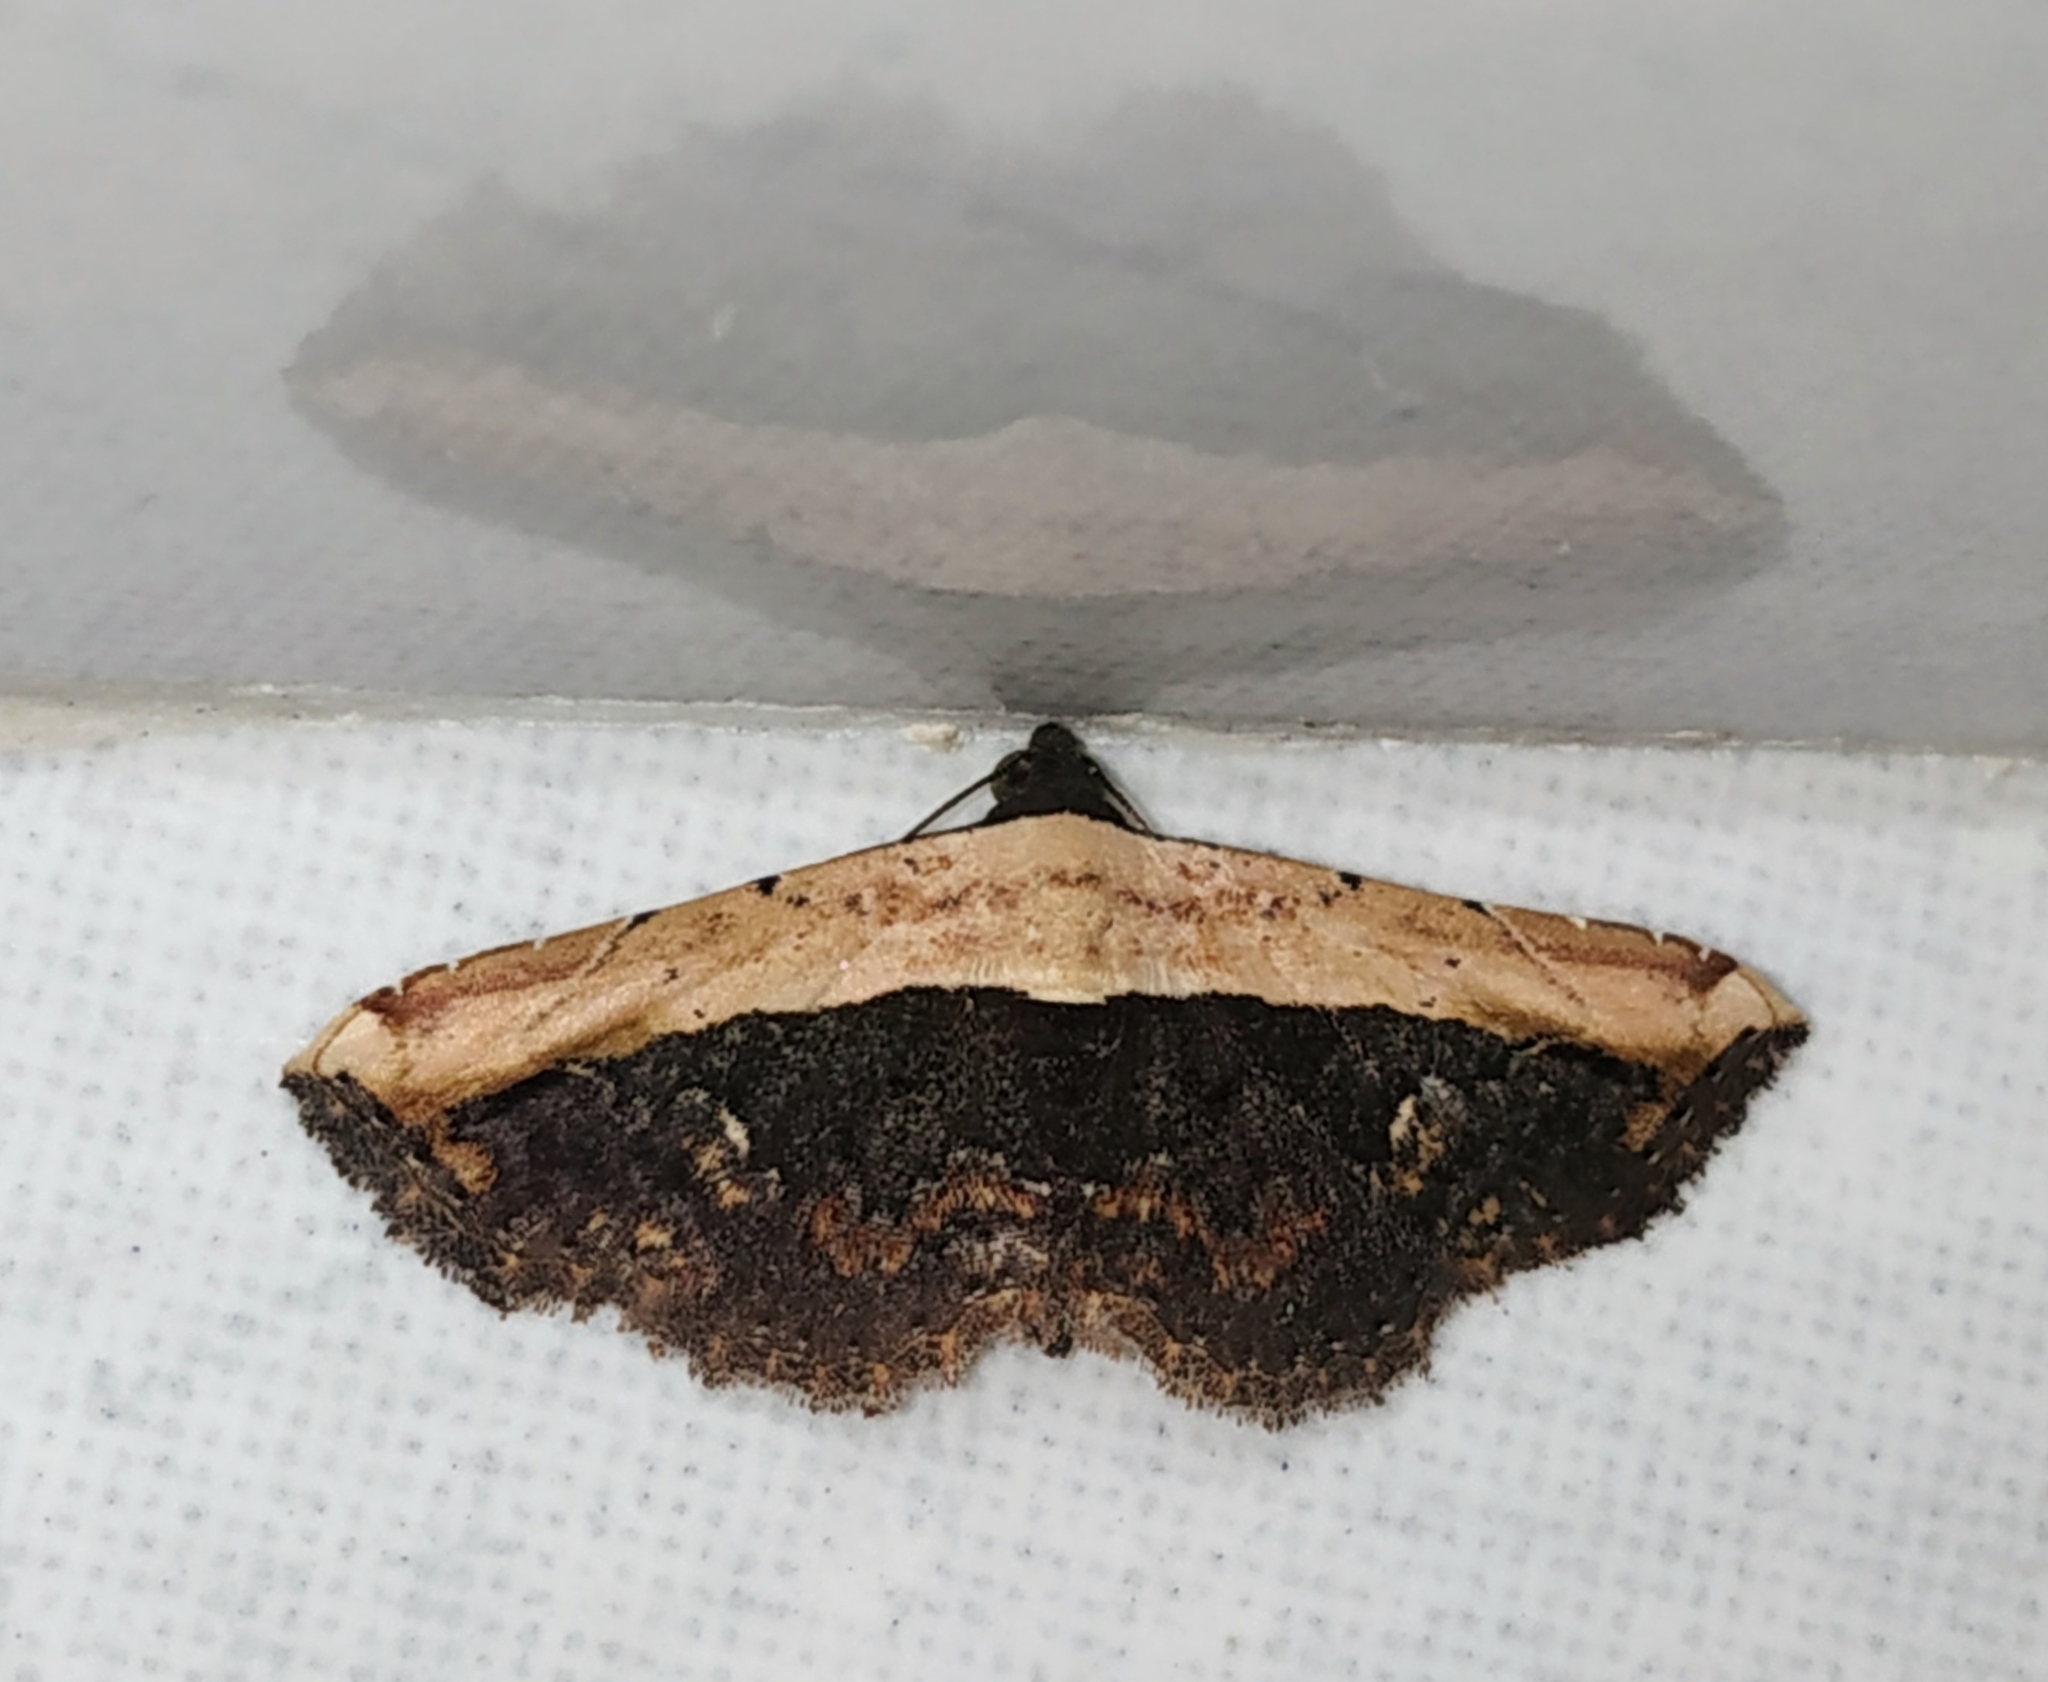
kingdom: Animalia
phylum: Arthropoda
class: Insecta
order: Lepidoptera
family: Noctuidae
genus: Ataboruza
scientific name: Ataboruza divisa
